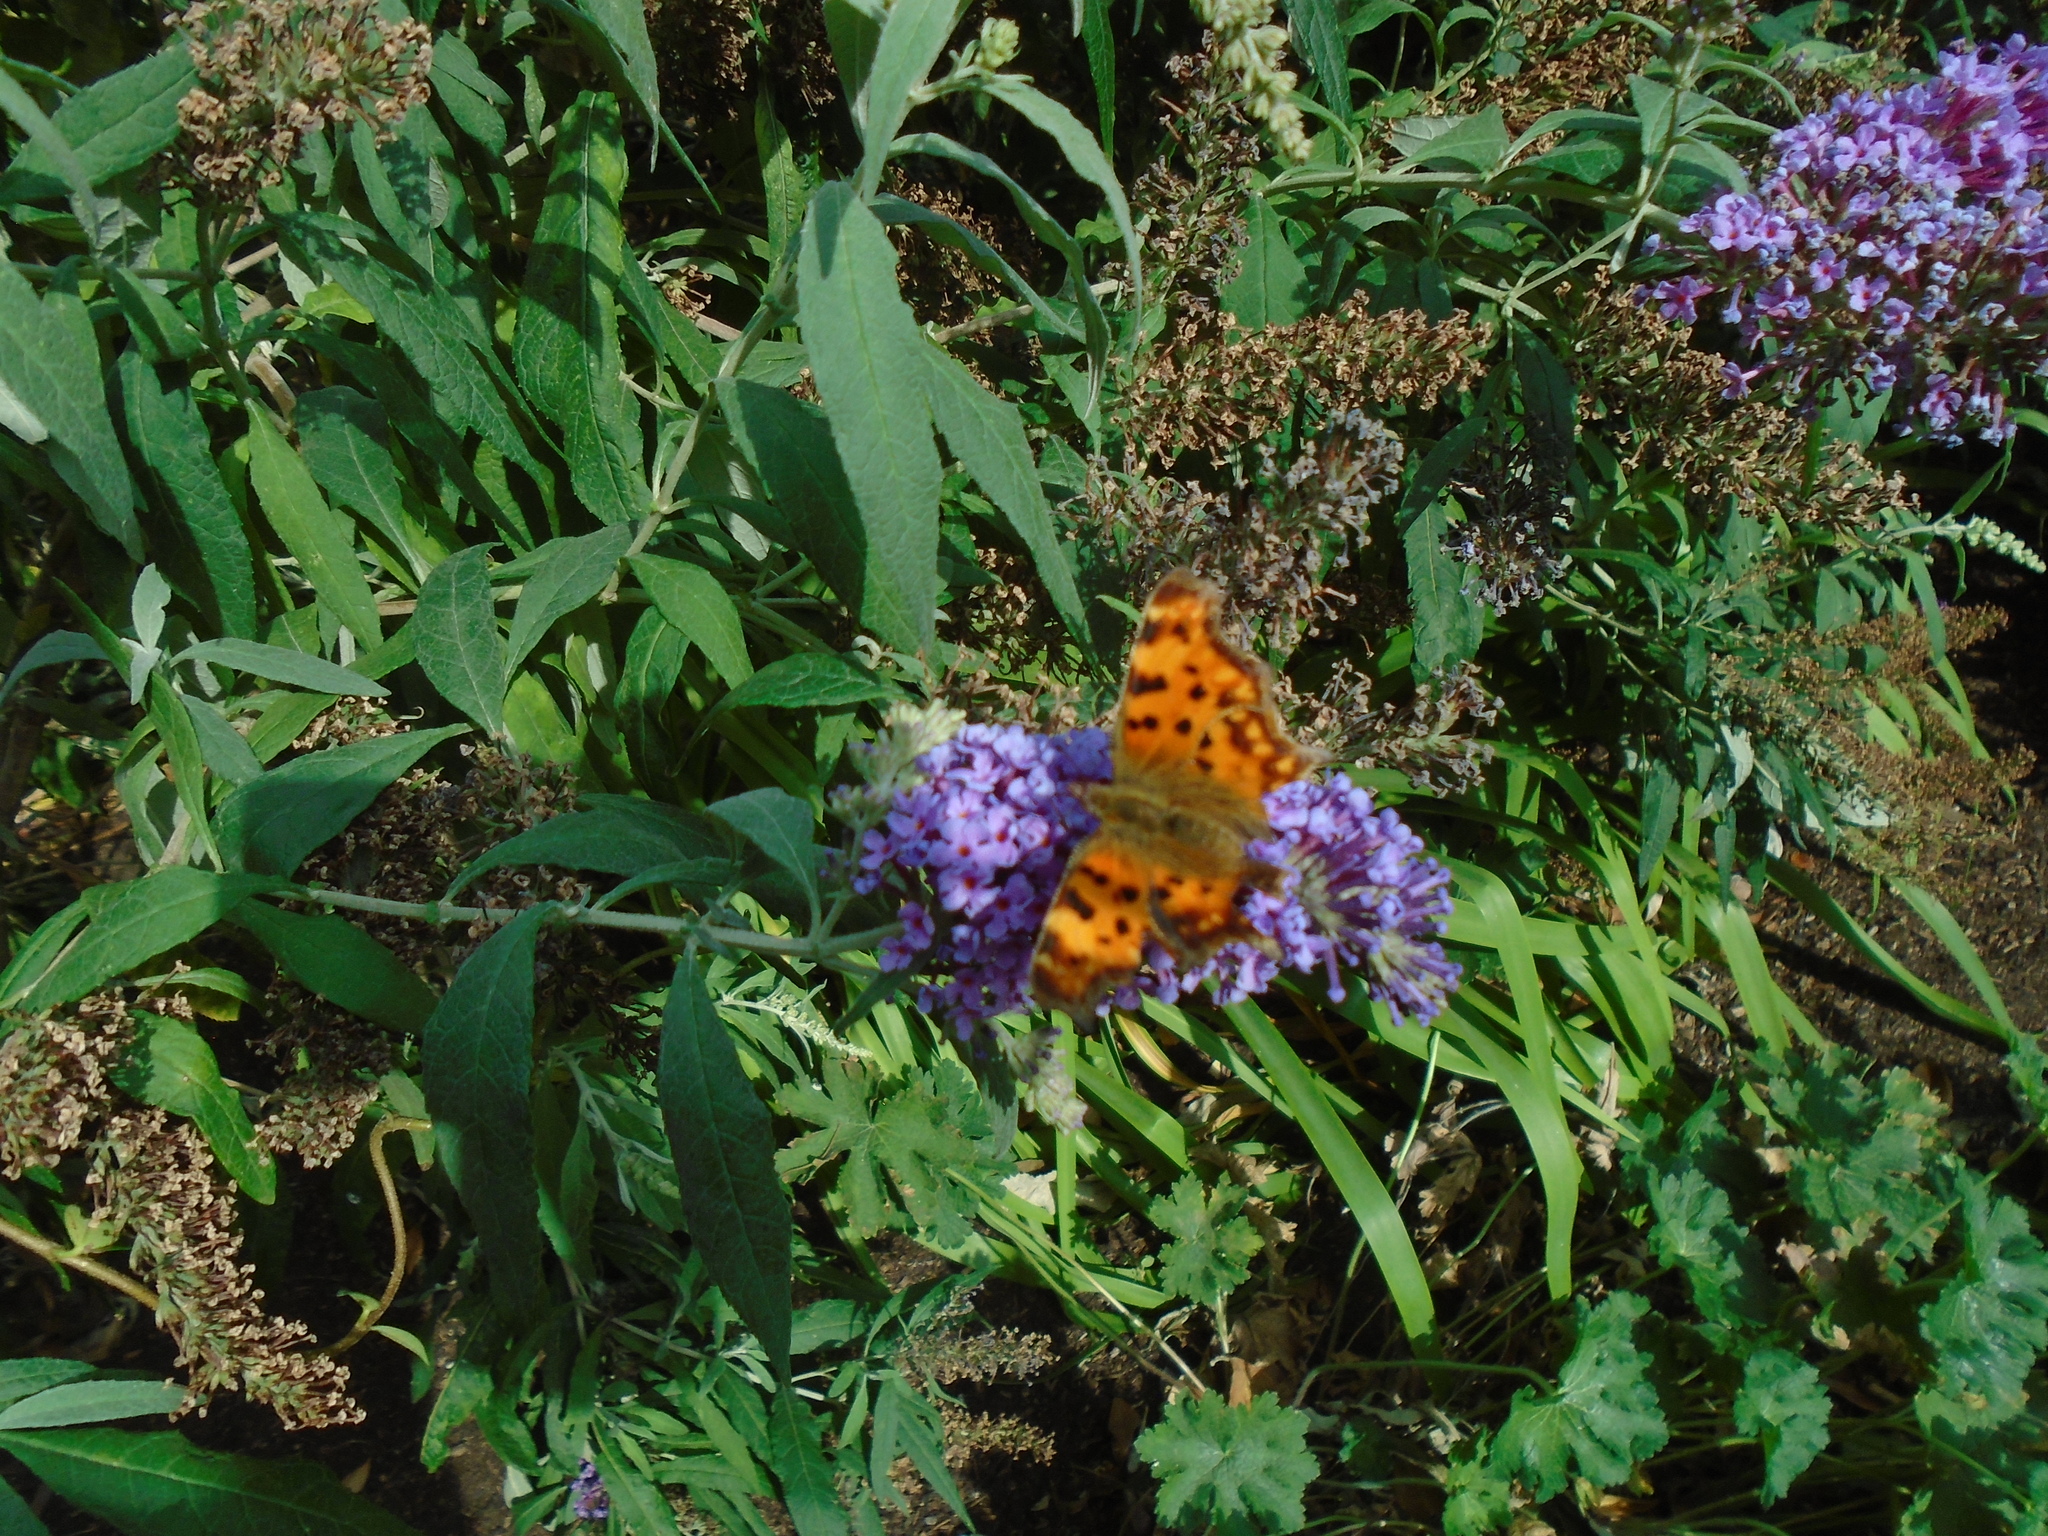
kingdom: Animalia
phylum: Arthropoda
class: Insecta
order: Lepidoptera
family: Nymphalidae
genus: Polygonia
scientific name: Polygonia c-album
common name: Comma
